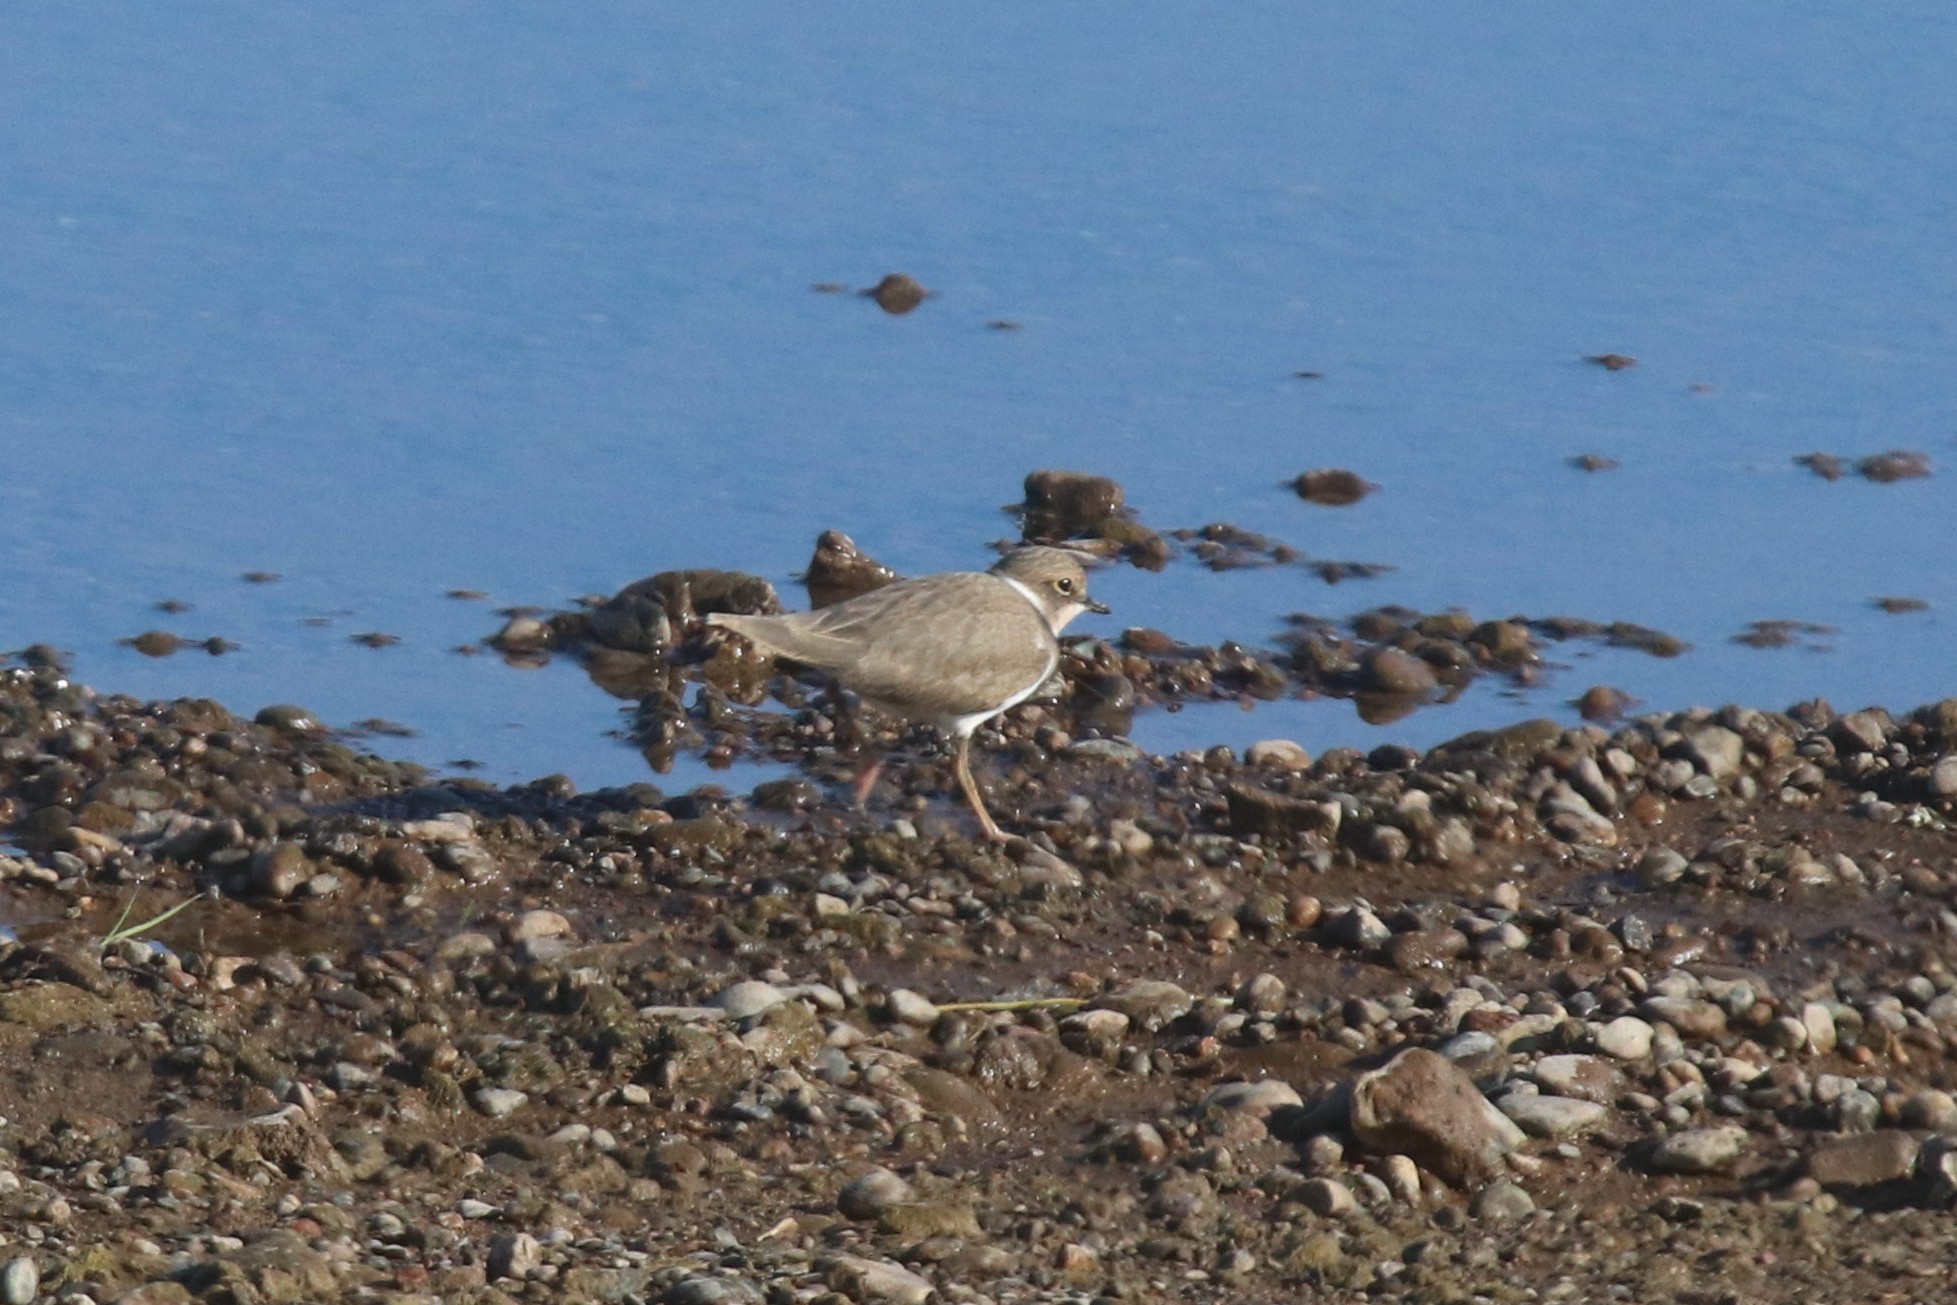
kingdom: Animalia
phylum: Chordata
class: Aves
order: Charadriiformes
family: Charadriidae
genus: Charadrius
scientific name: Charadrius dubius
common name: Little ringed plover
